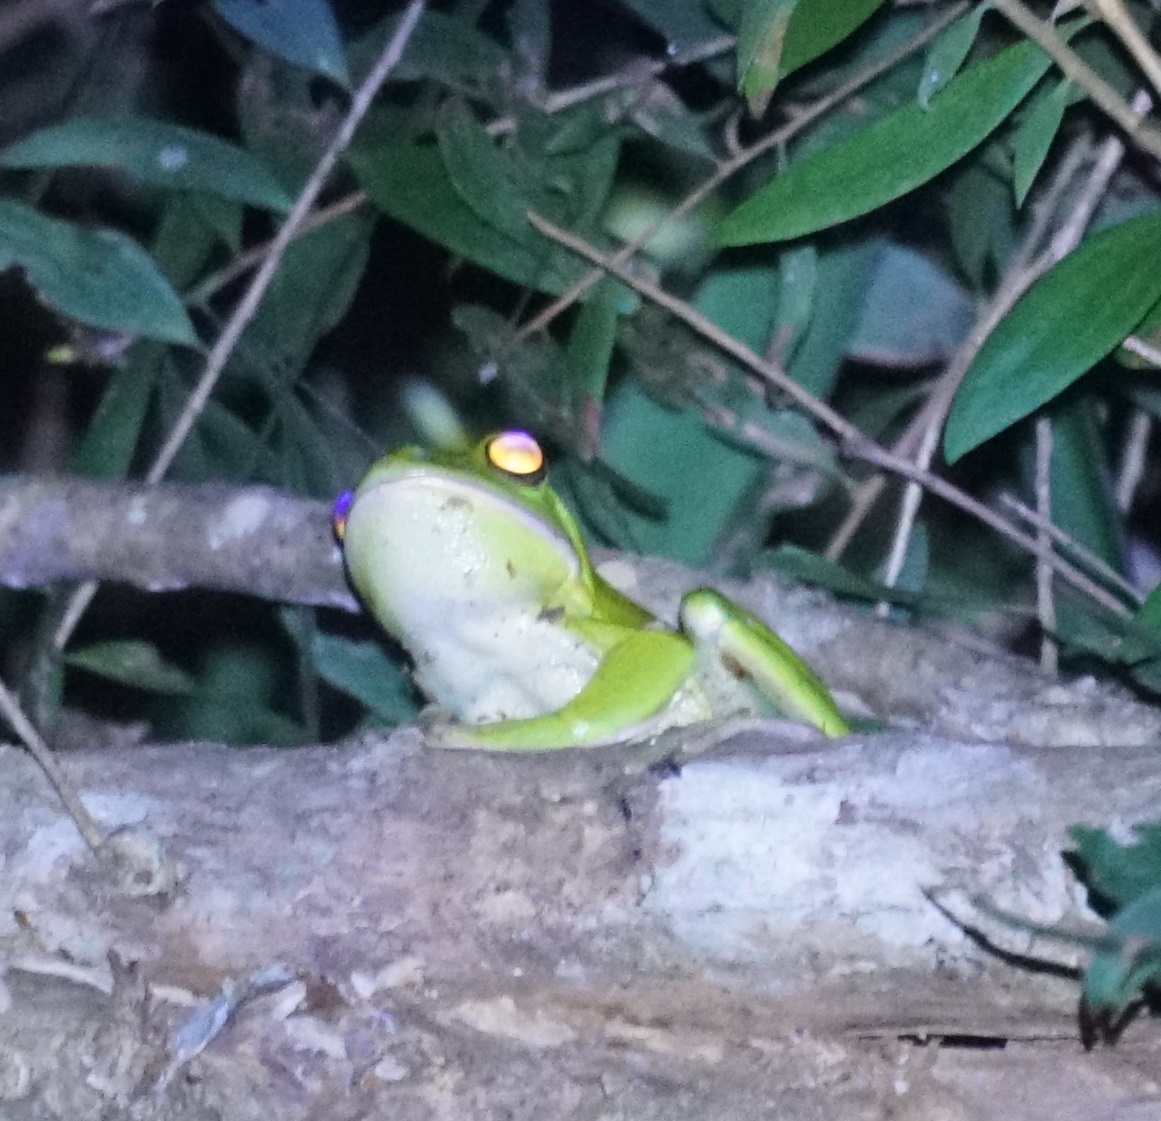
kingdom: Animalia
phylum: Chordata
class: Amphibia
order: Anura
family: Pelodryadidae
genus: Nyctimystes
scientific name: Nyctimystes infrafrenatus
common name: Australian giant treefrog
